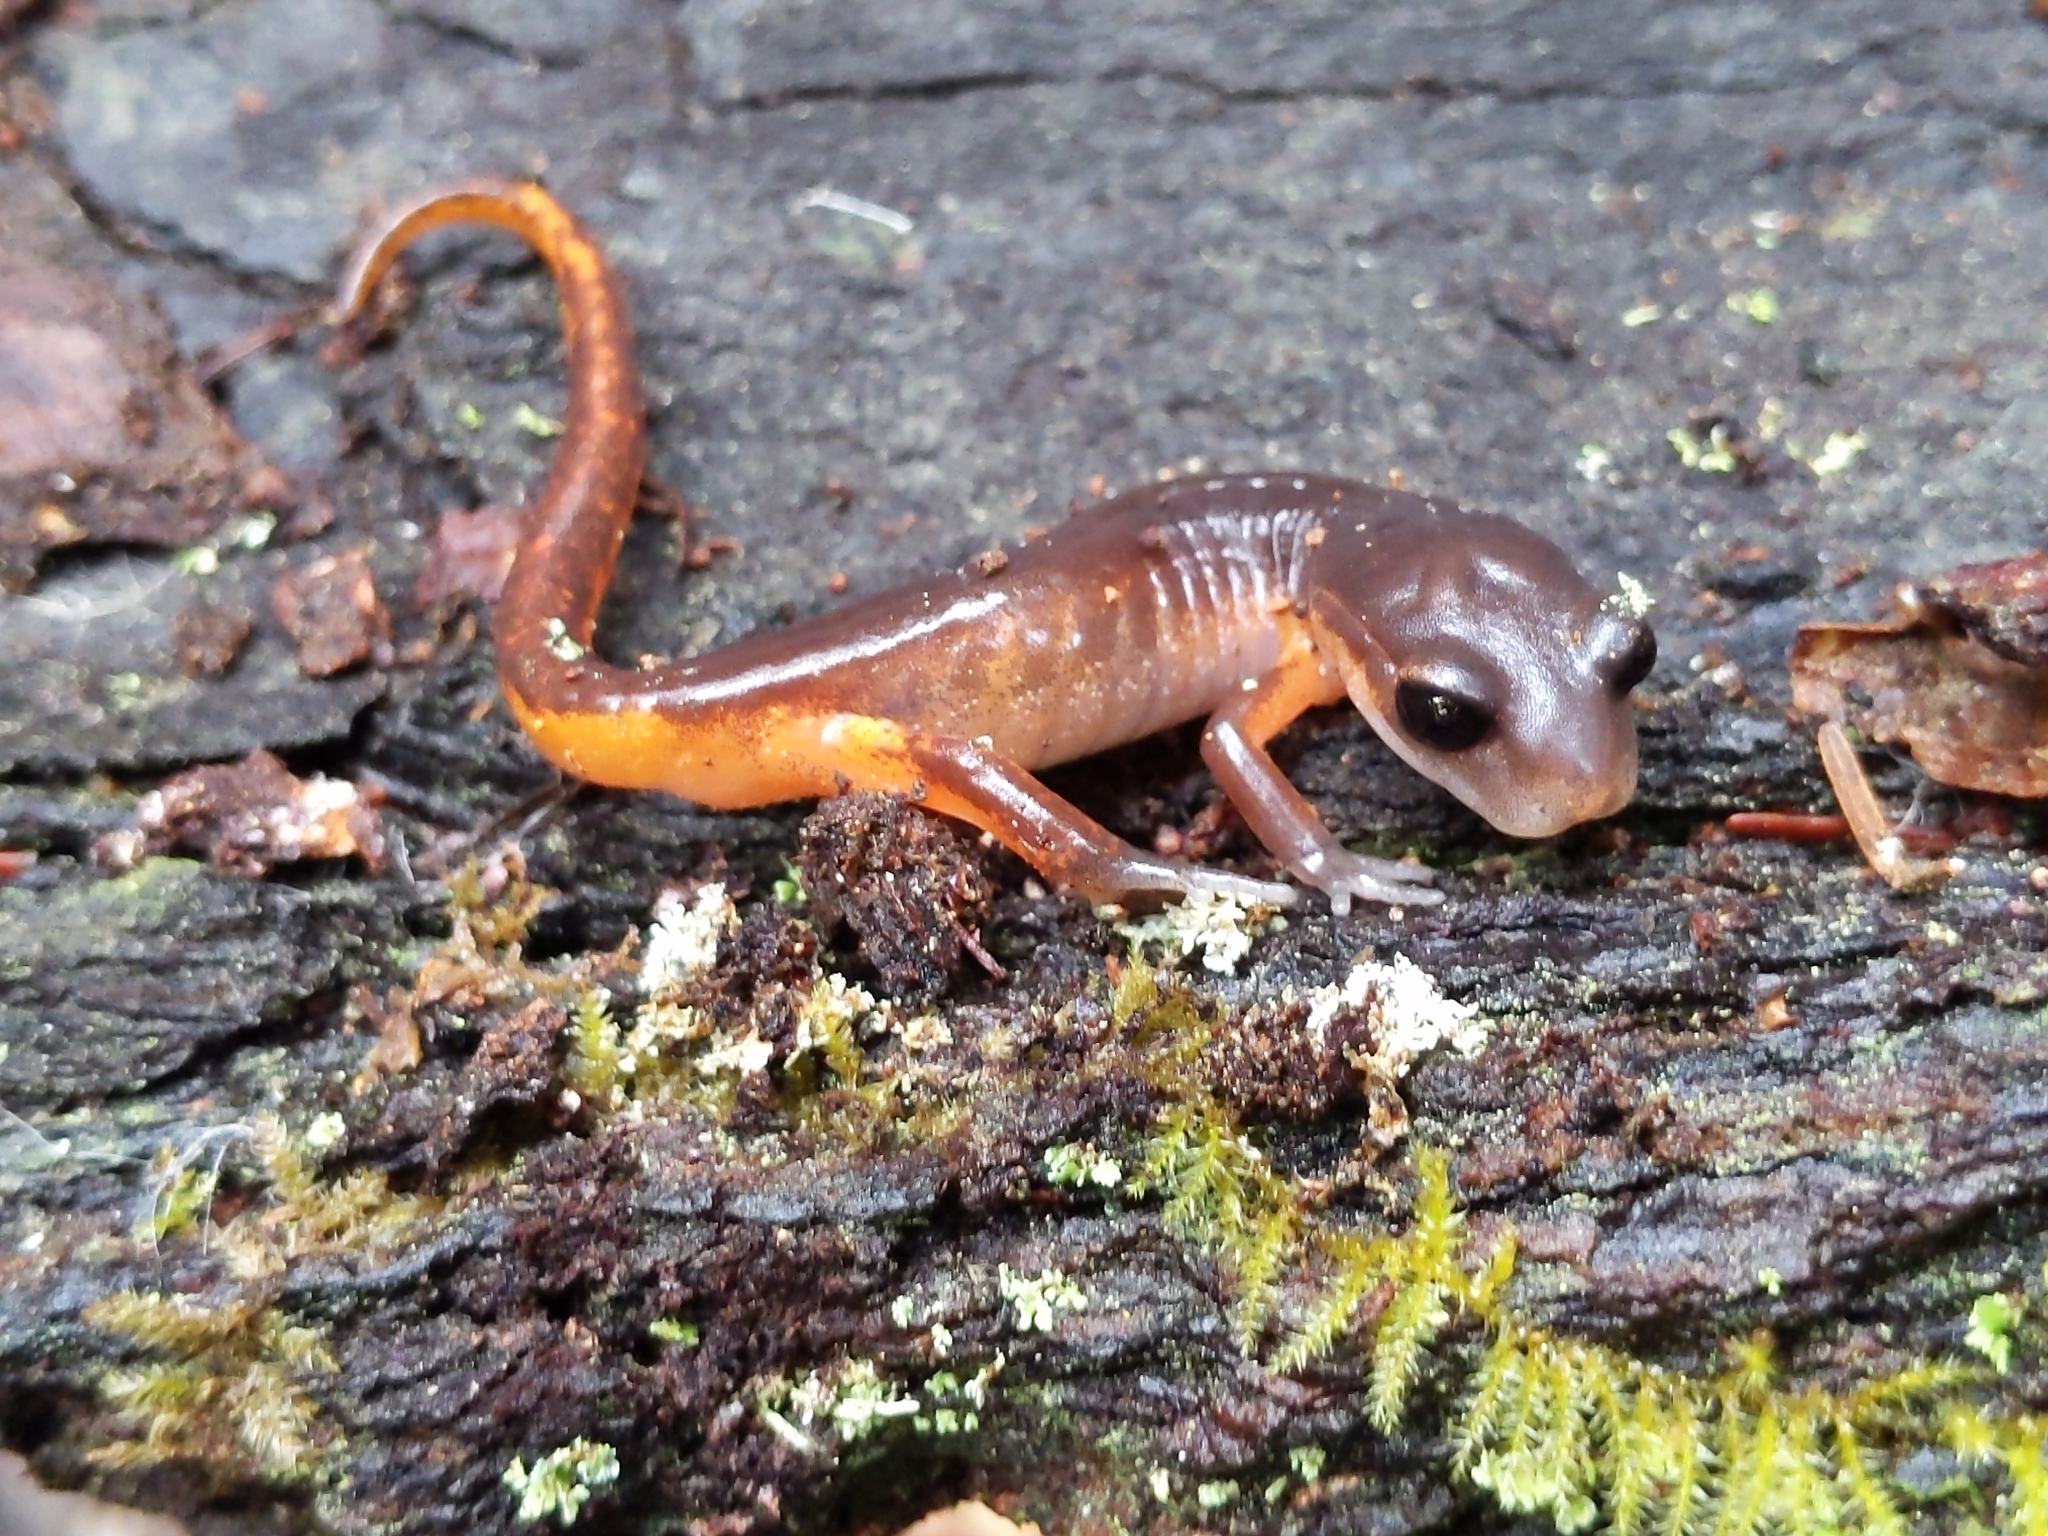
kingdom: Animalia
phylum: Chordata
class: Amphibia
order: Caudata
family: Plethodontidae
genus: Ensatina
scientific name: Ensatina eschscholtzii
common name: Ensatina
